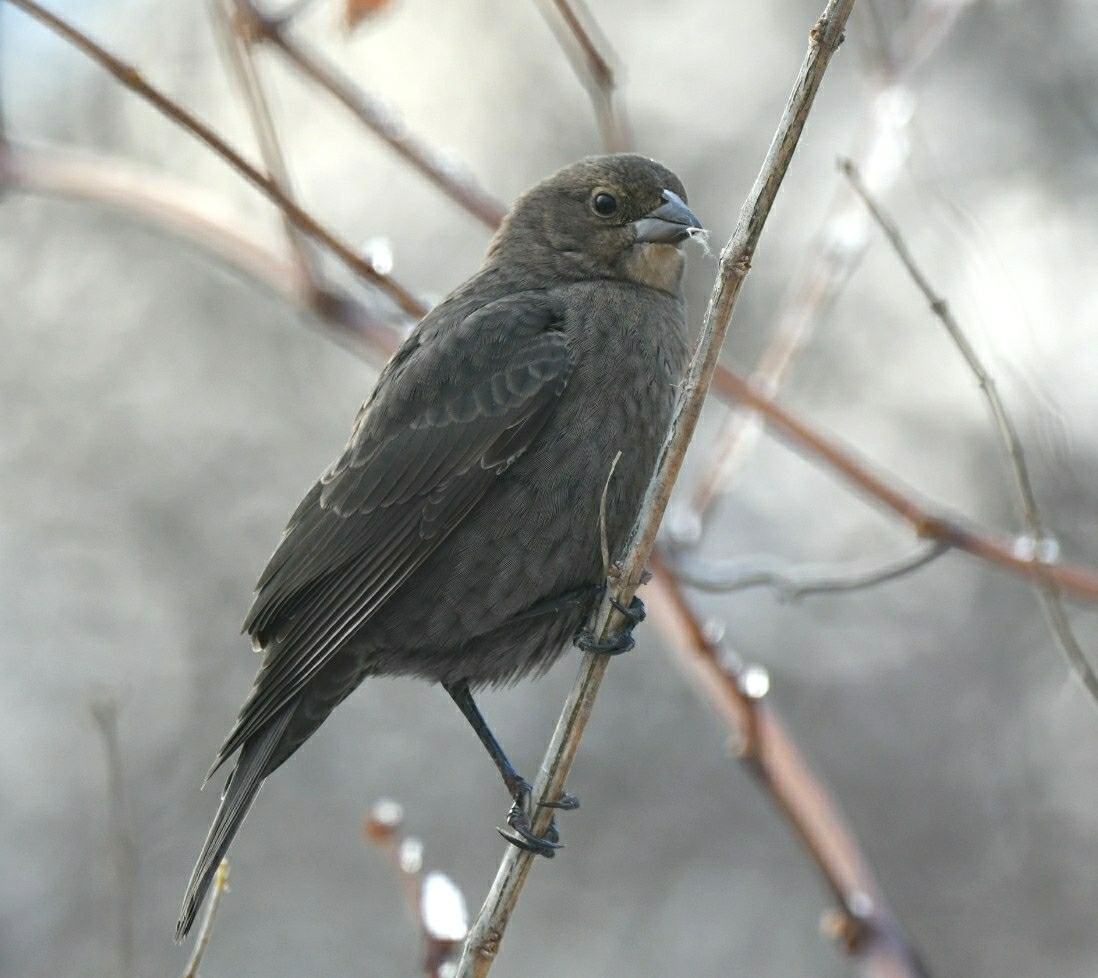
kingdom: Animalia
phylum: Chordata
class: Aves
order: Passeriformes
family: Icteridae
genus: Molothrus
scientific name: Molothrus ater
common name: Brown-headed cowbird
